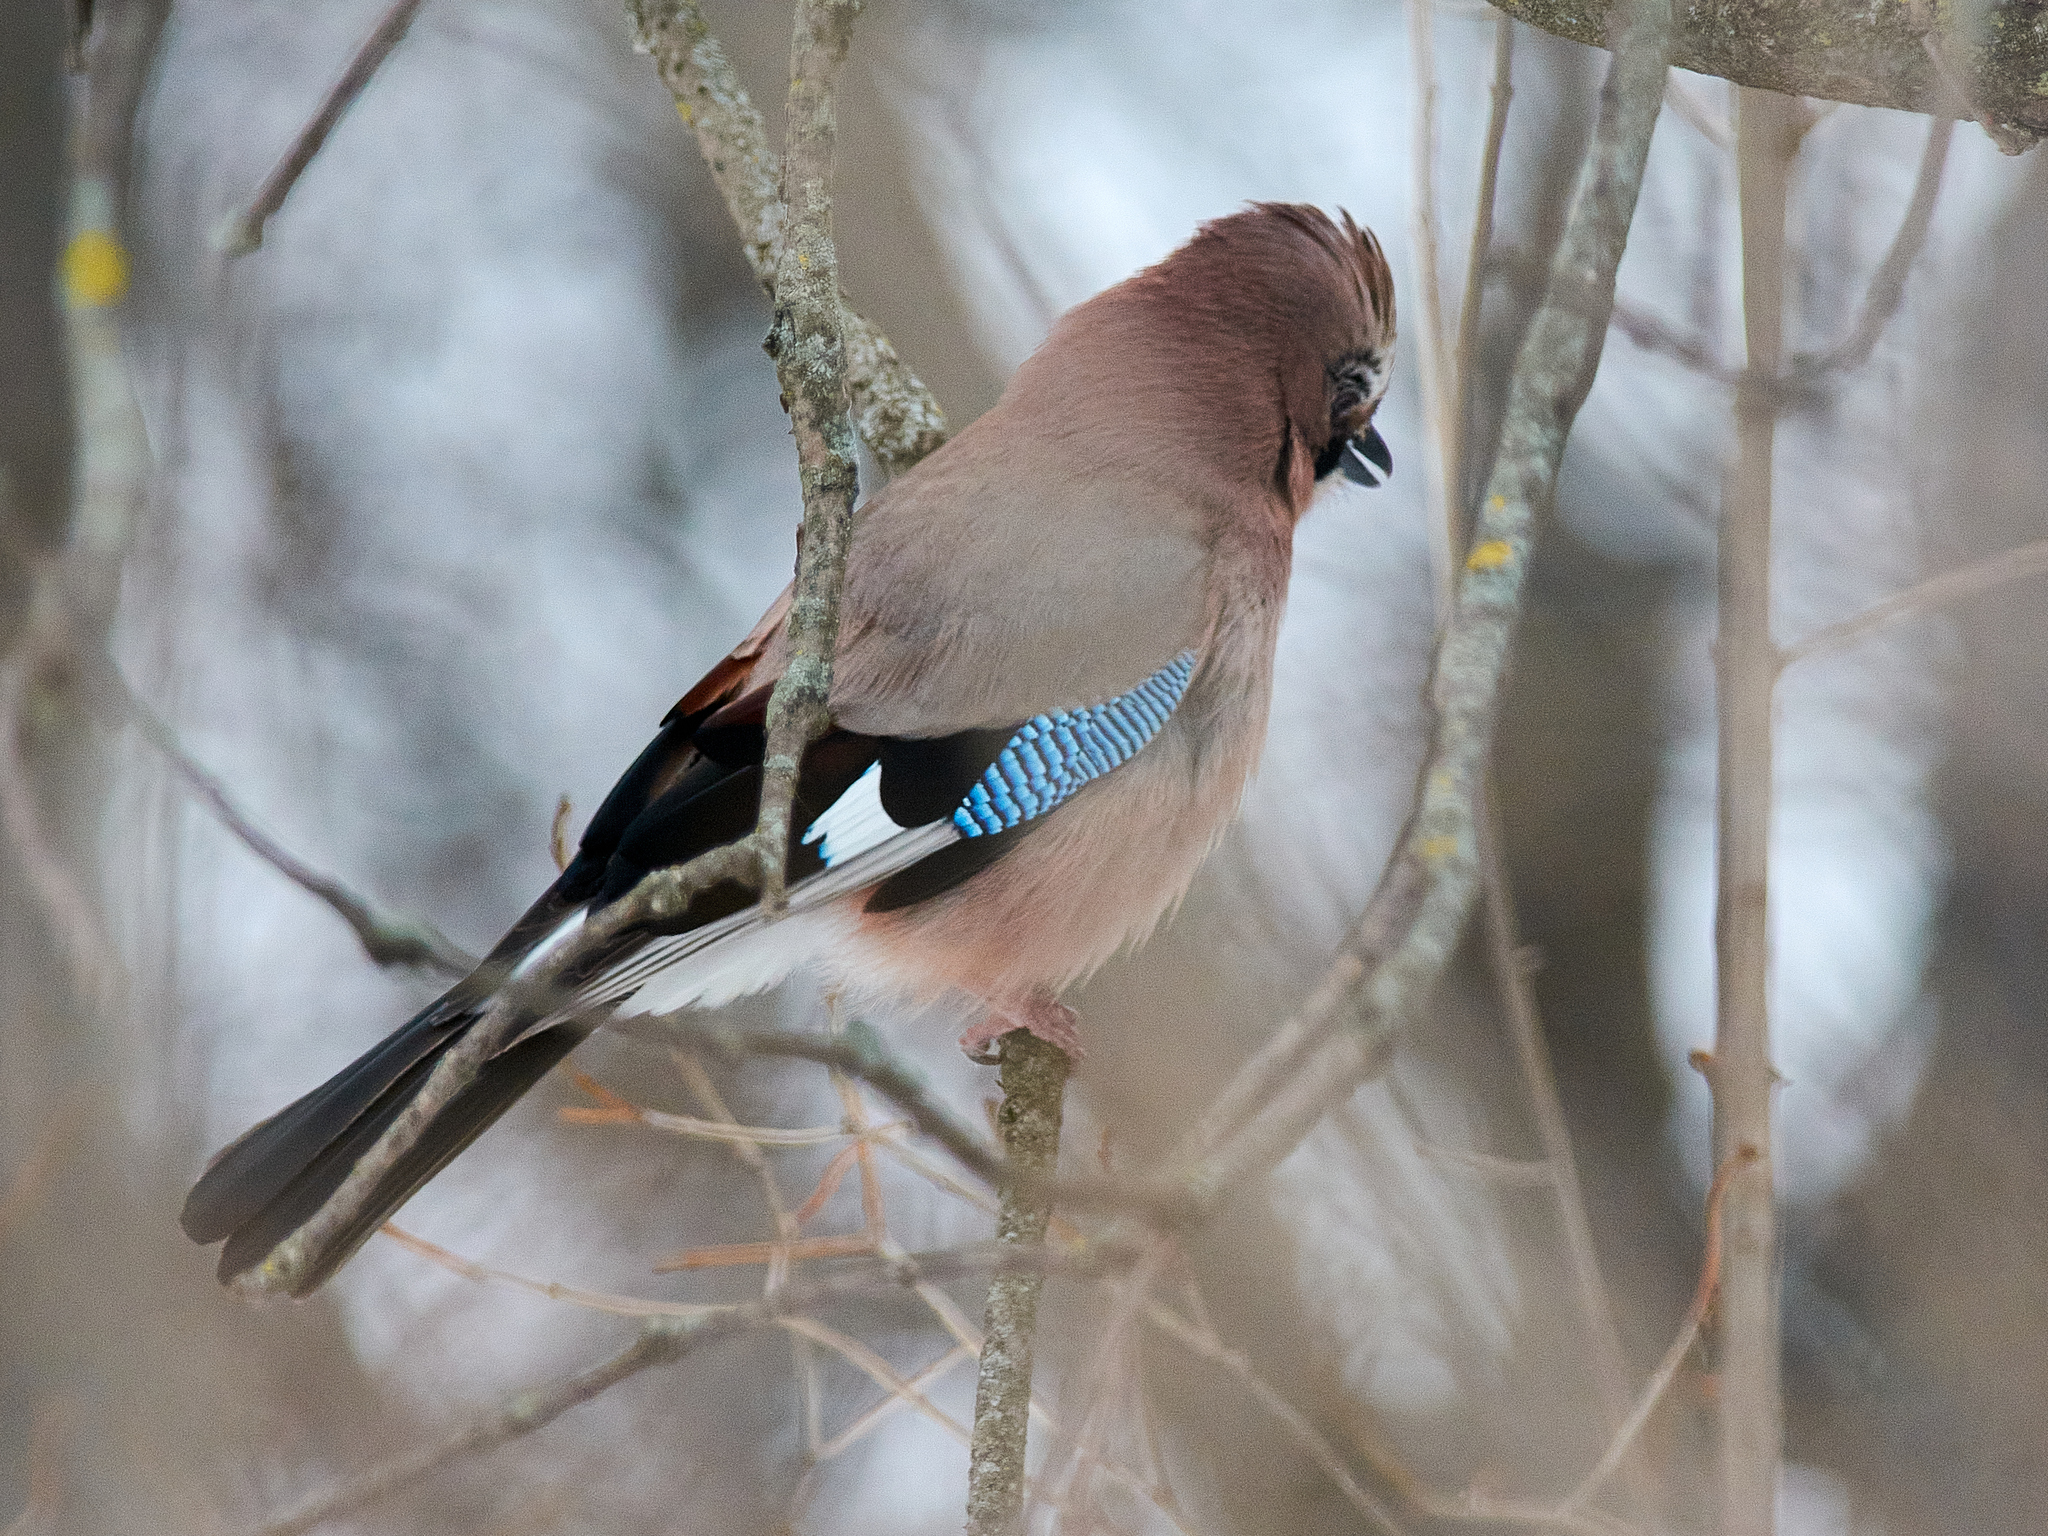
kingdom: Animalia
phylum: Chordata
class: Aves
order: Passeriformes
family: Corvidae
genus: Garrulus
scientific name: Garrulus glandarius
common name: Eurasian jay
